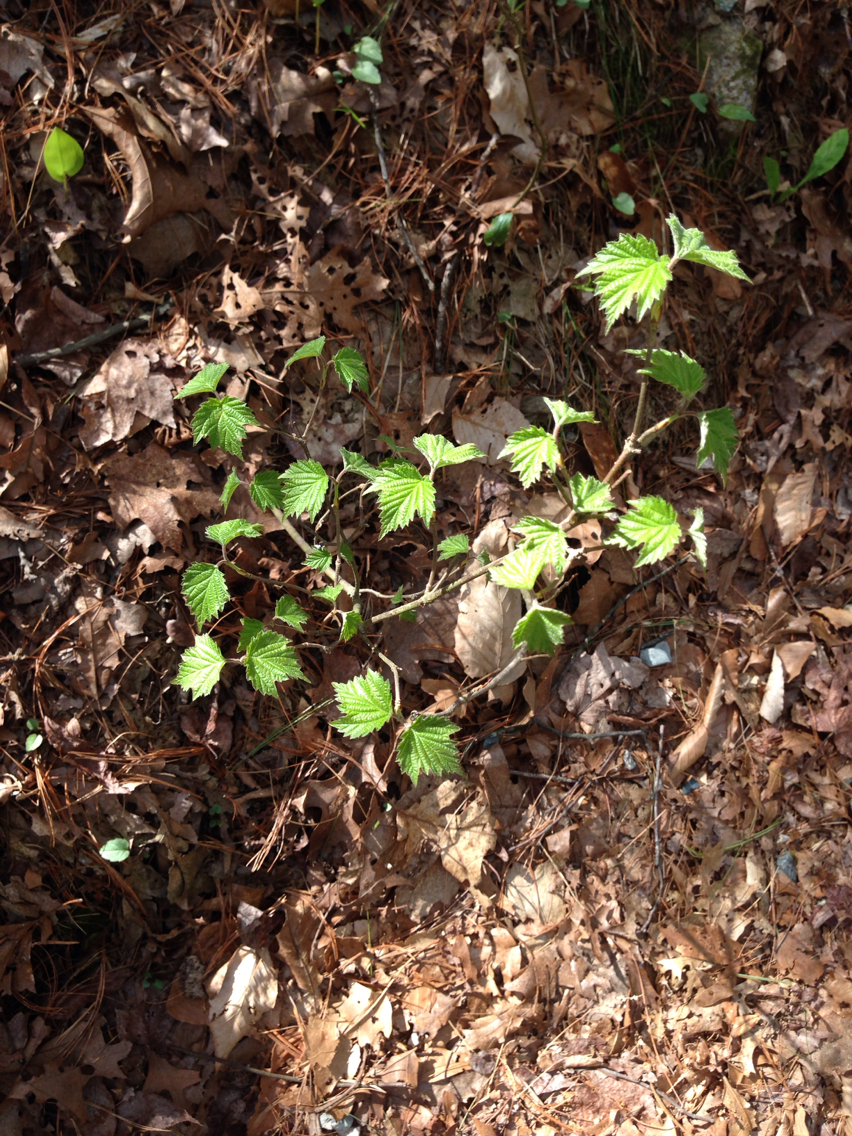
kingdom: Plantae
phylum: Tracheophyta
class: Magnoliopsida
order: Dipsacales
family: Viburnaceae
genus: Viburnum
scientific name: Viburnum acerifolium
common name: Dockmackie
